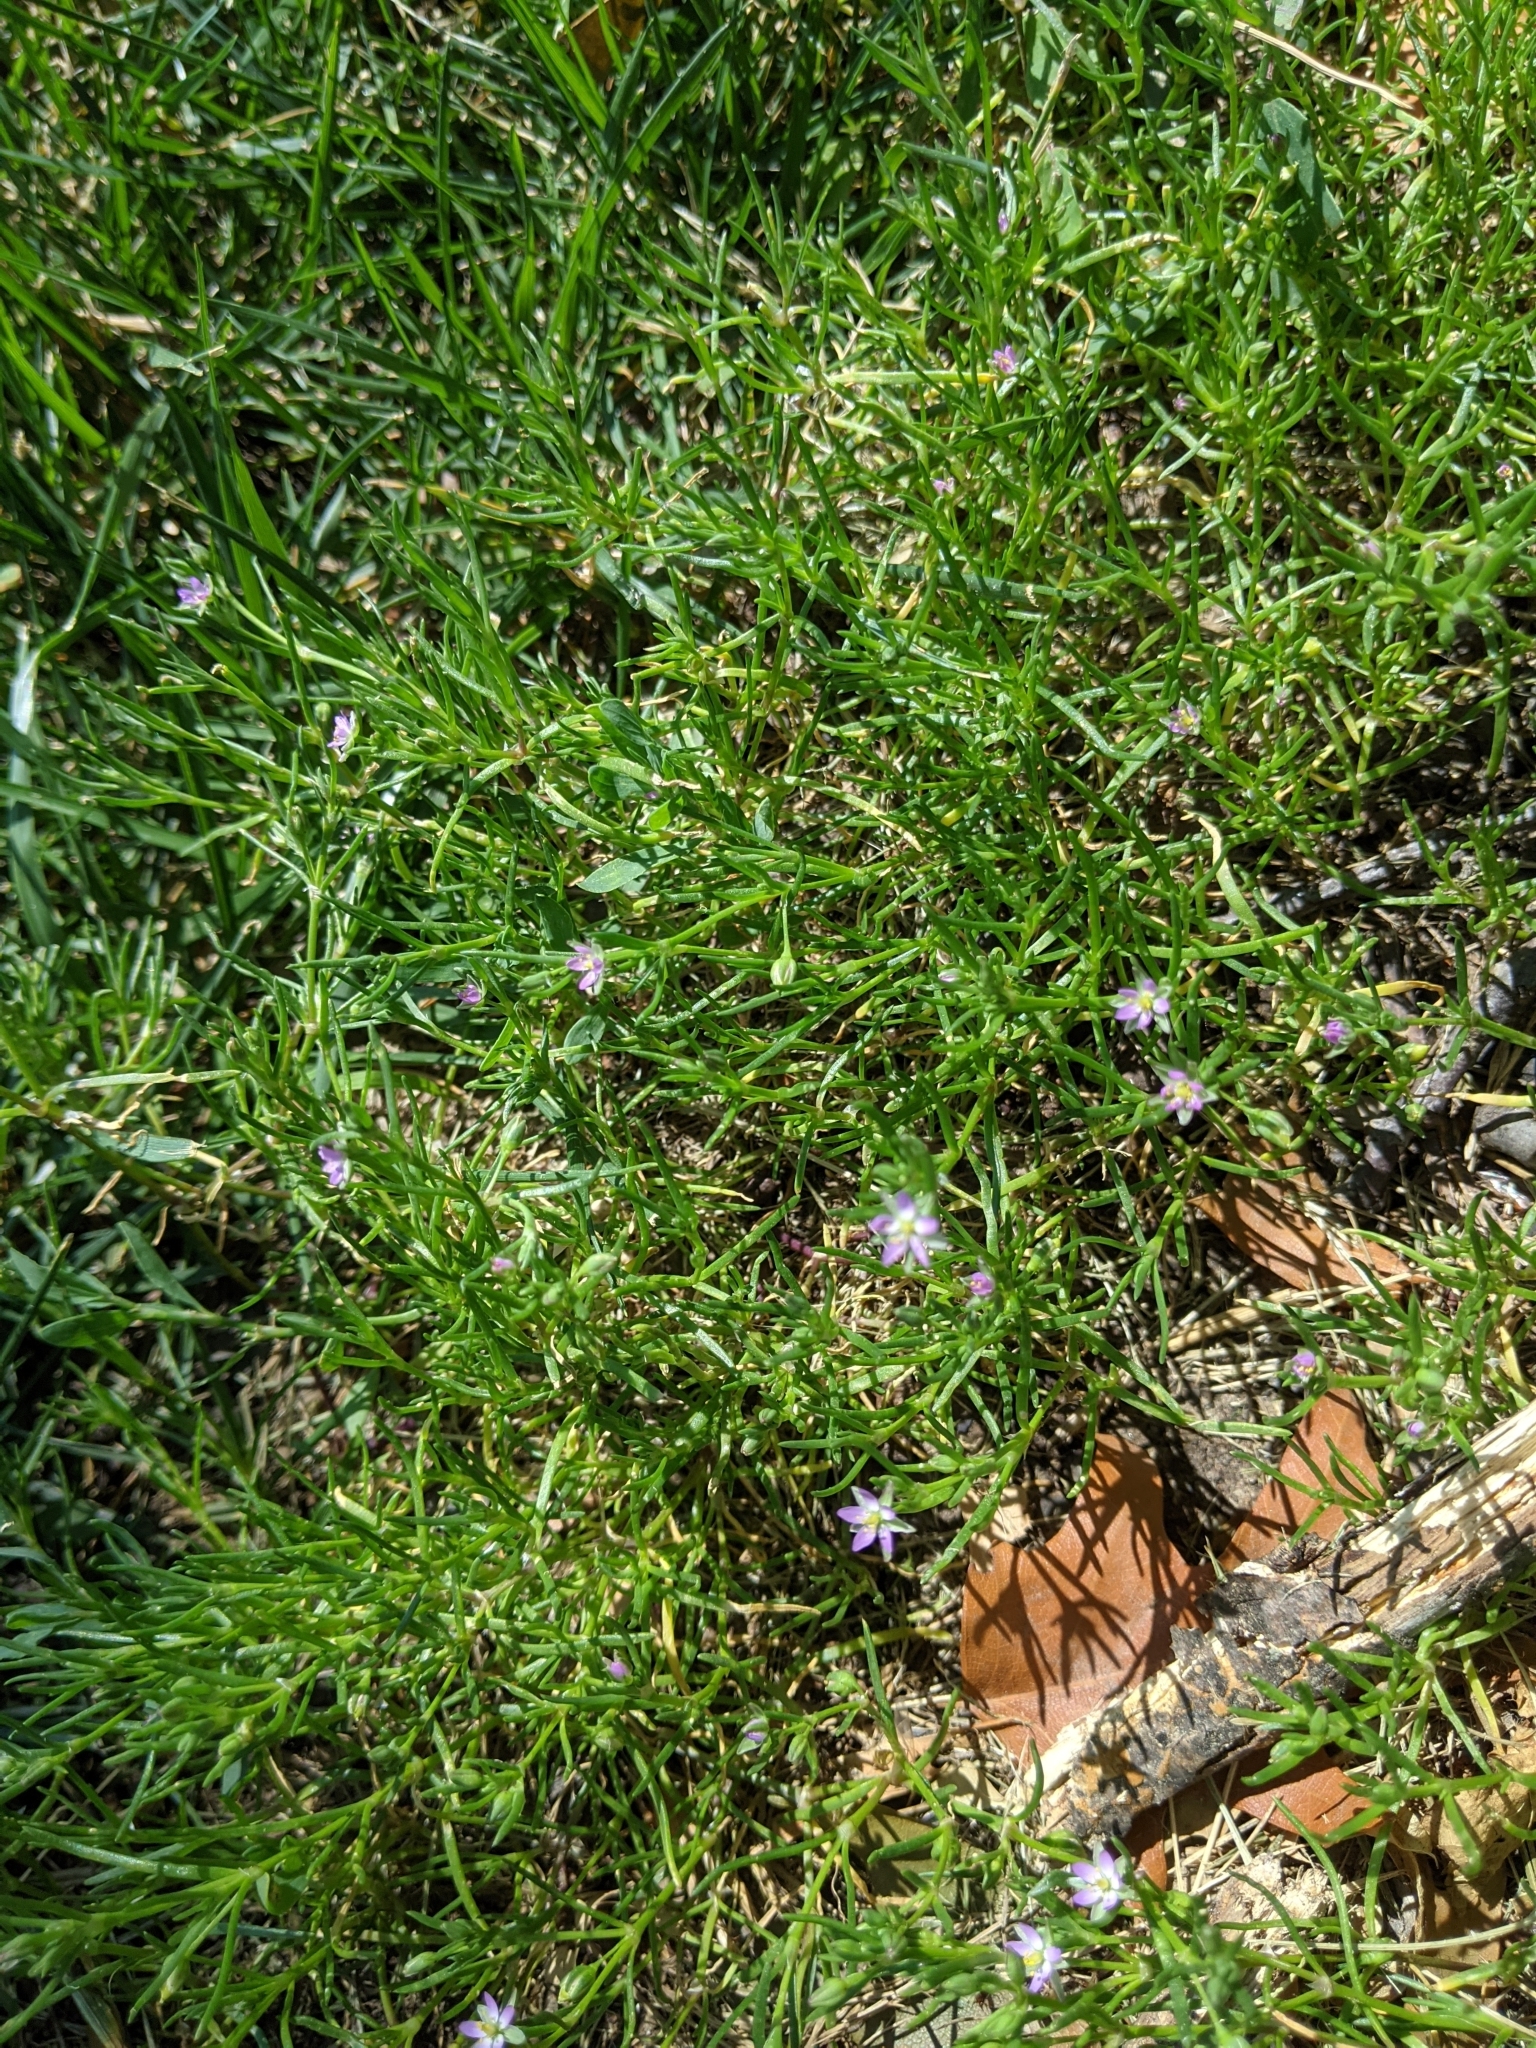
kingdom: Plantae
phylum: Tracheophyta
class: Magnoliopsida
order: Caryophyllales
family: Caryophyllaceae
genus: Spergularia
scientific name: Spergularia rubra
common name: Red sand-spurrey
